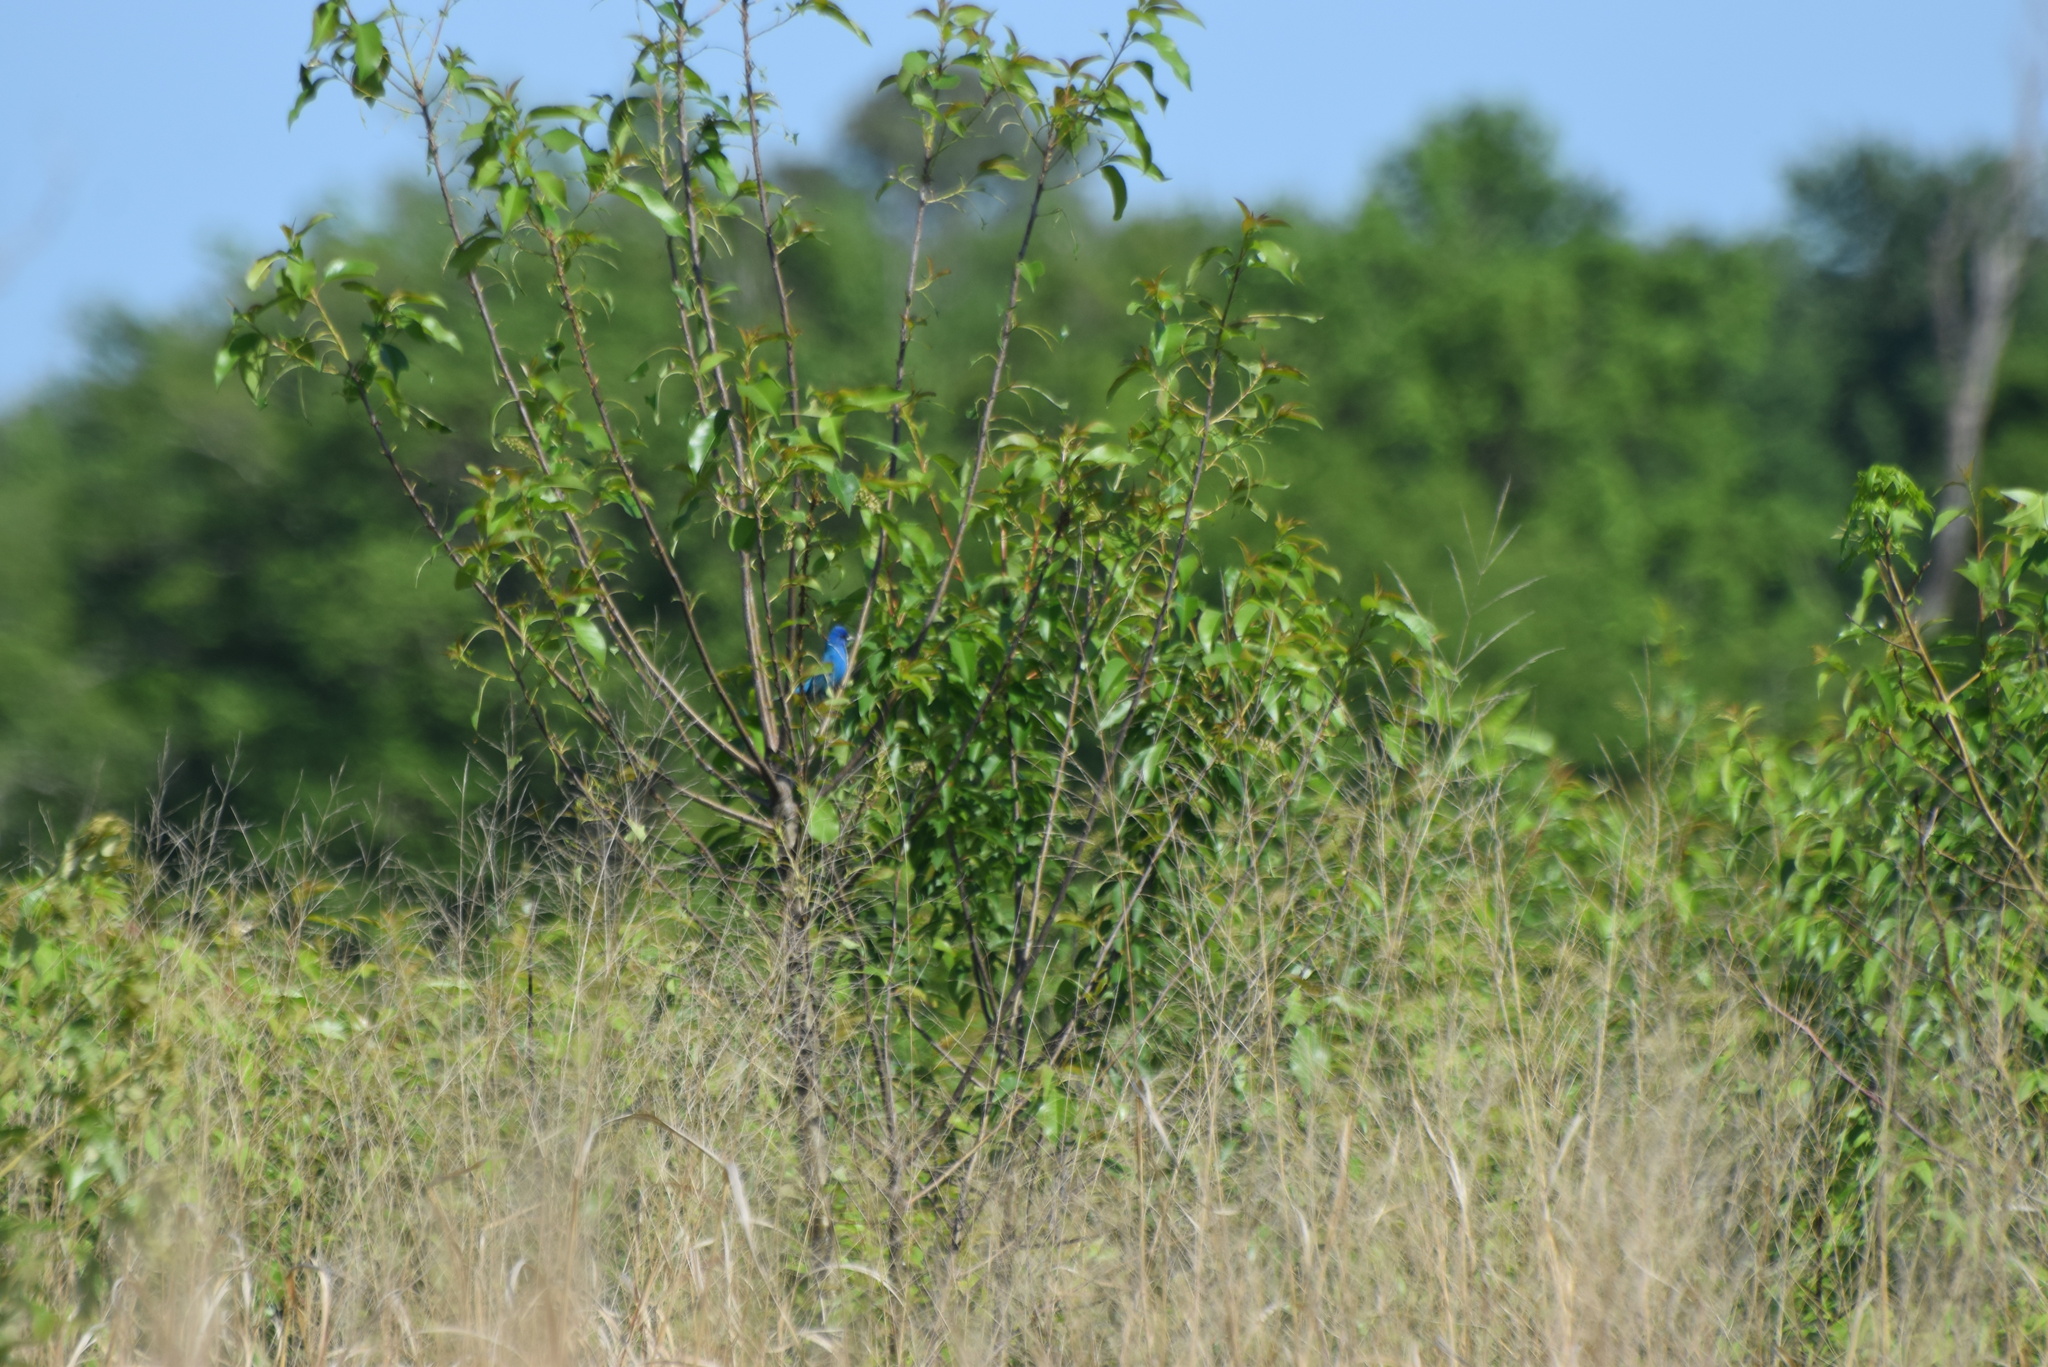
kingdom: Animalia
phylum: Chordata
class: Aves
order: Passeriformes
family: Cardinalidae
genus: Passerina
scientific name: Passerina cyanea
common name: Indigo bunting
